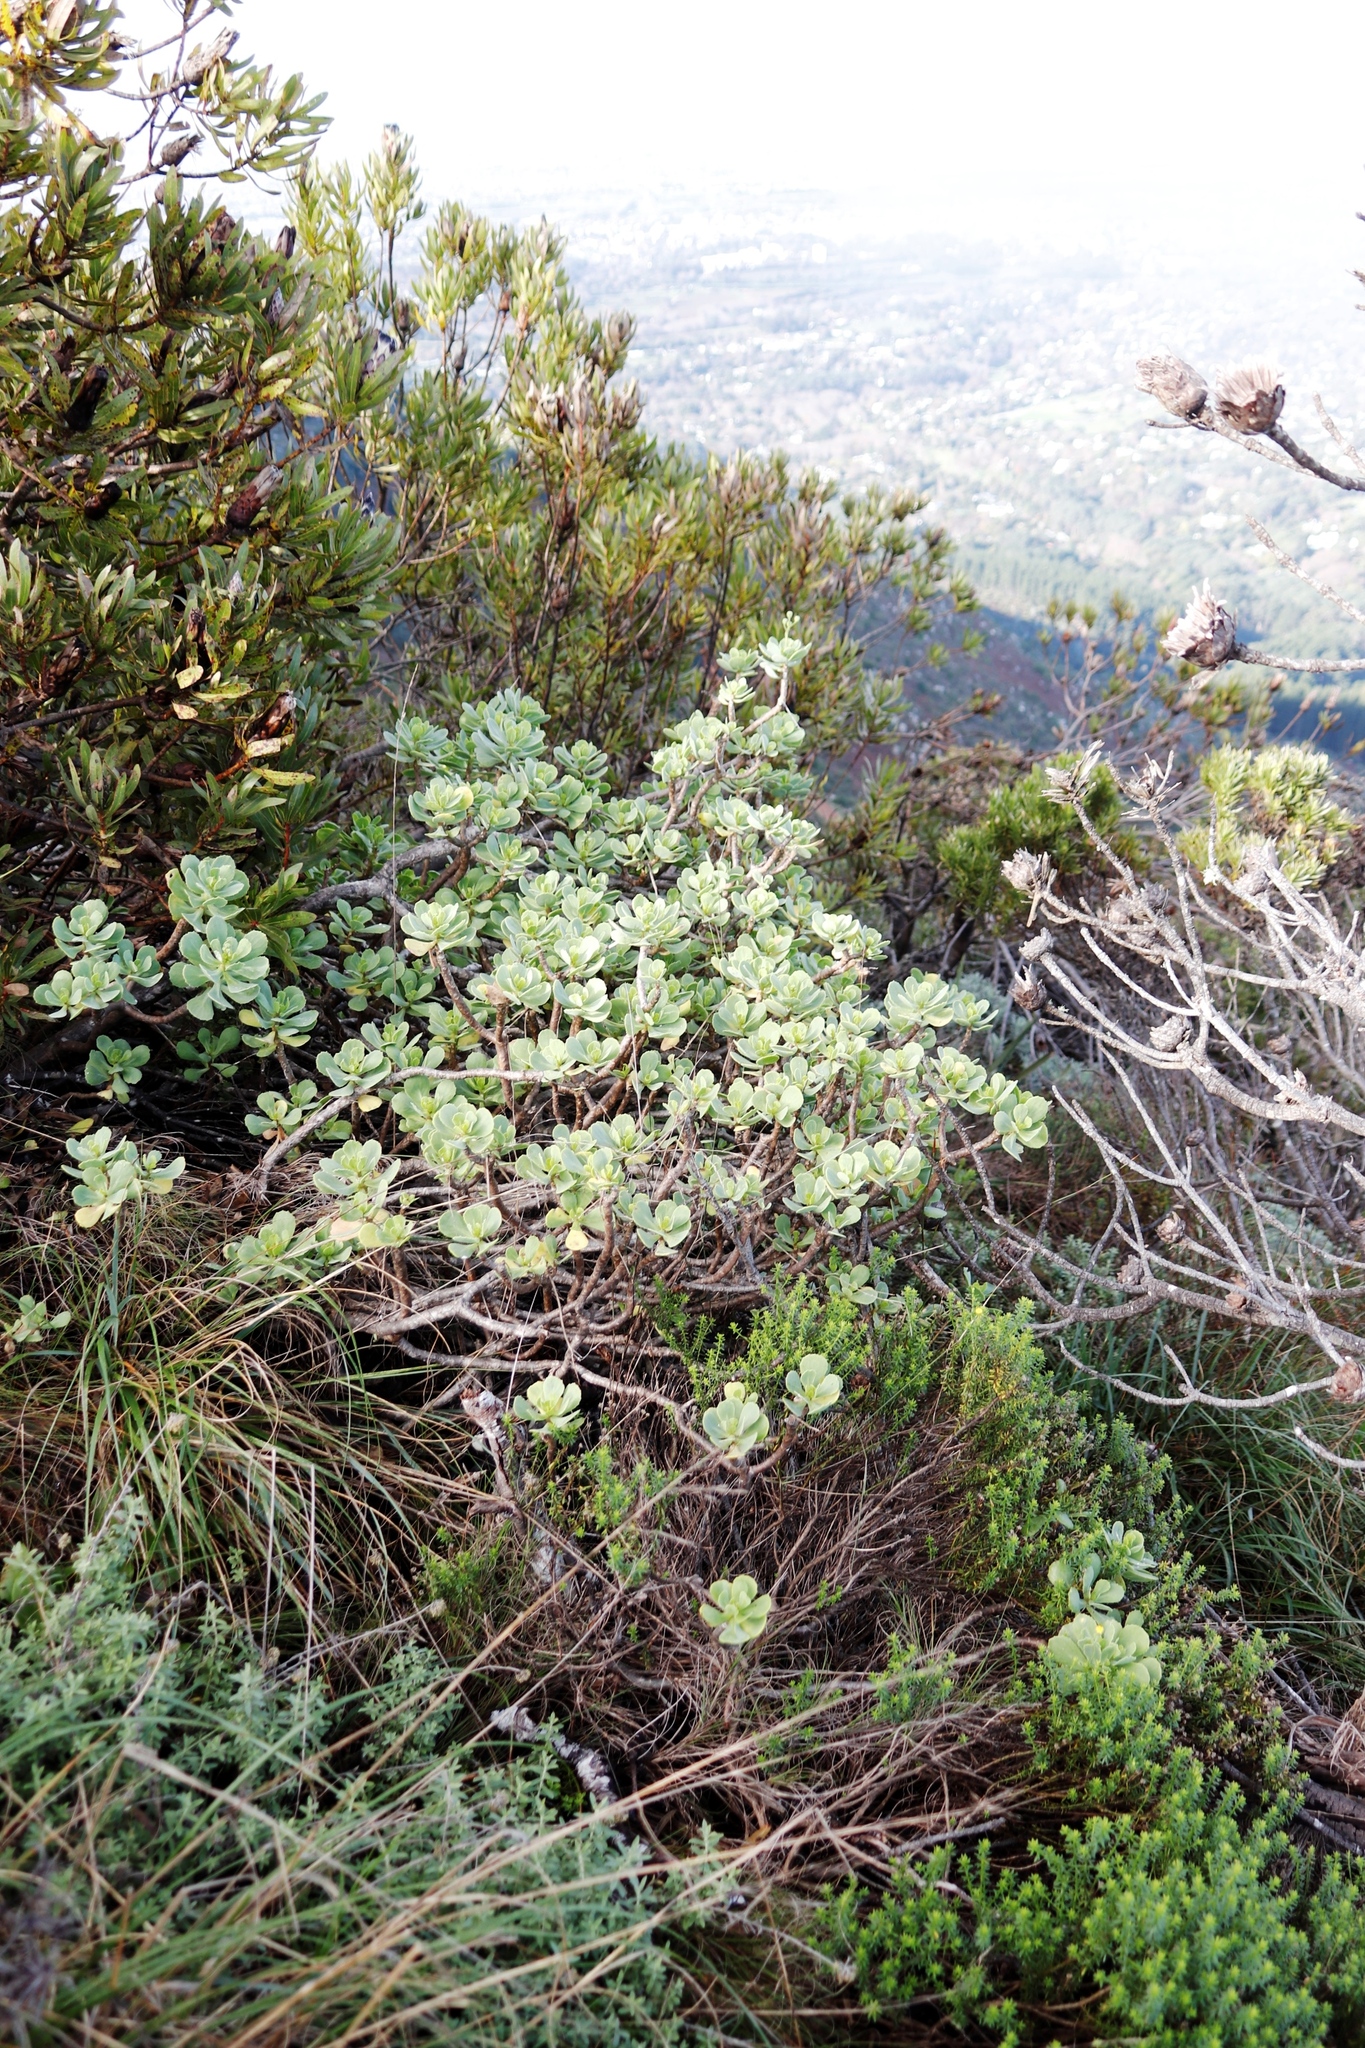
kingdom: Plantae
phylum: Tracheophyta
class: Magnoliopsida
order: Asterales
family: Asteraceae
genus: Othonna
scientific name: Othonna dentata
